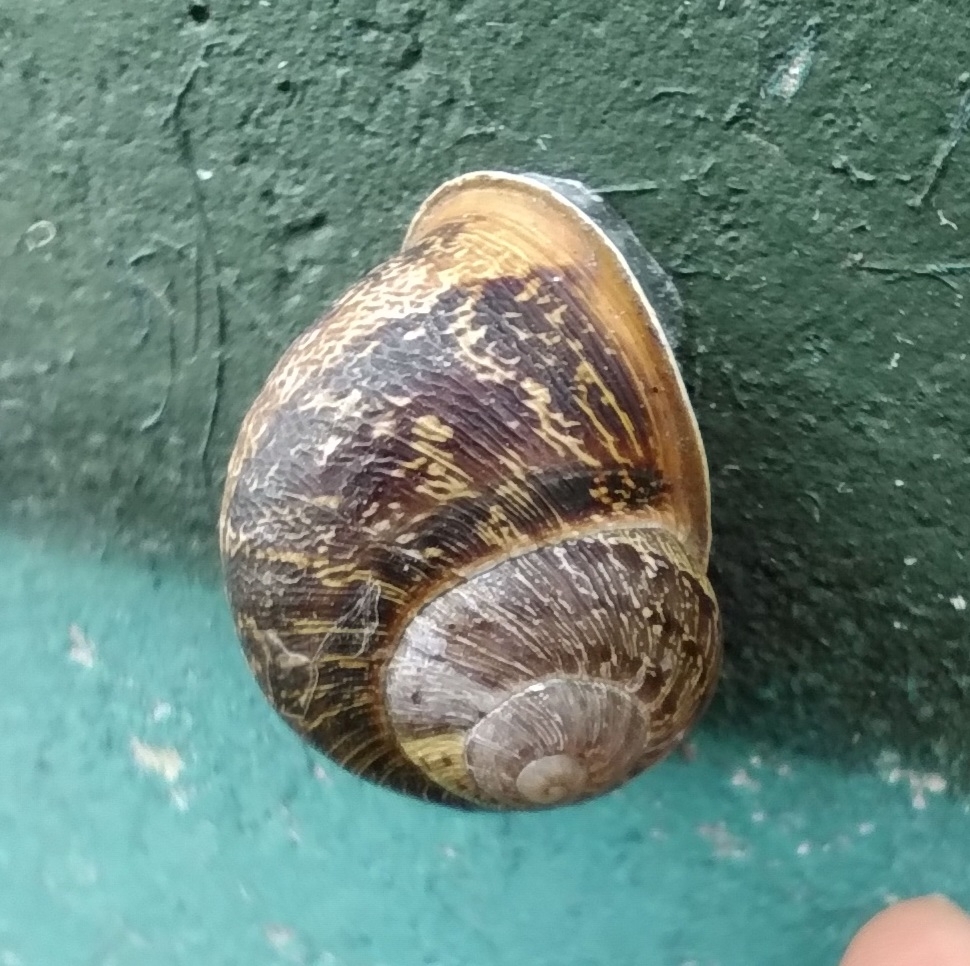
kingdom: Animalia
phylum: Mollusca
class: Gastropoda
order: Stylommatophora
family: Helicidae
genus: Cornu
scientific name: Cornu aspersum
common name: Brown garden snail
